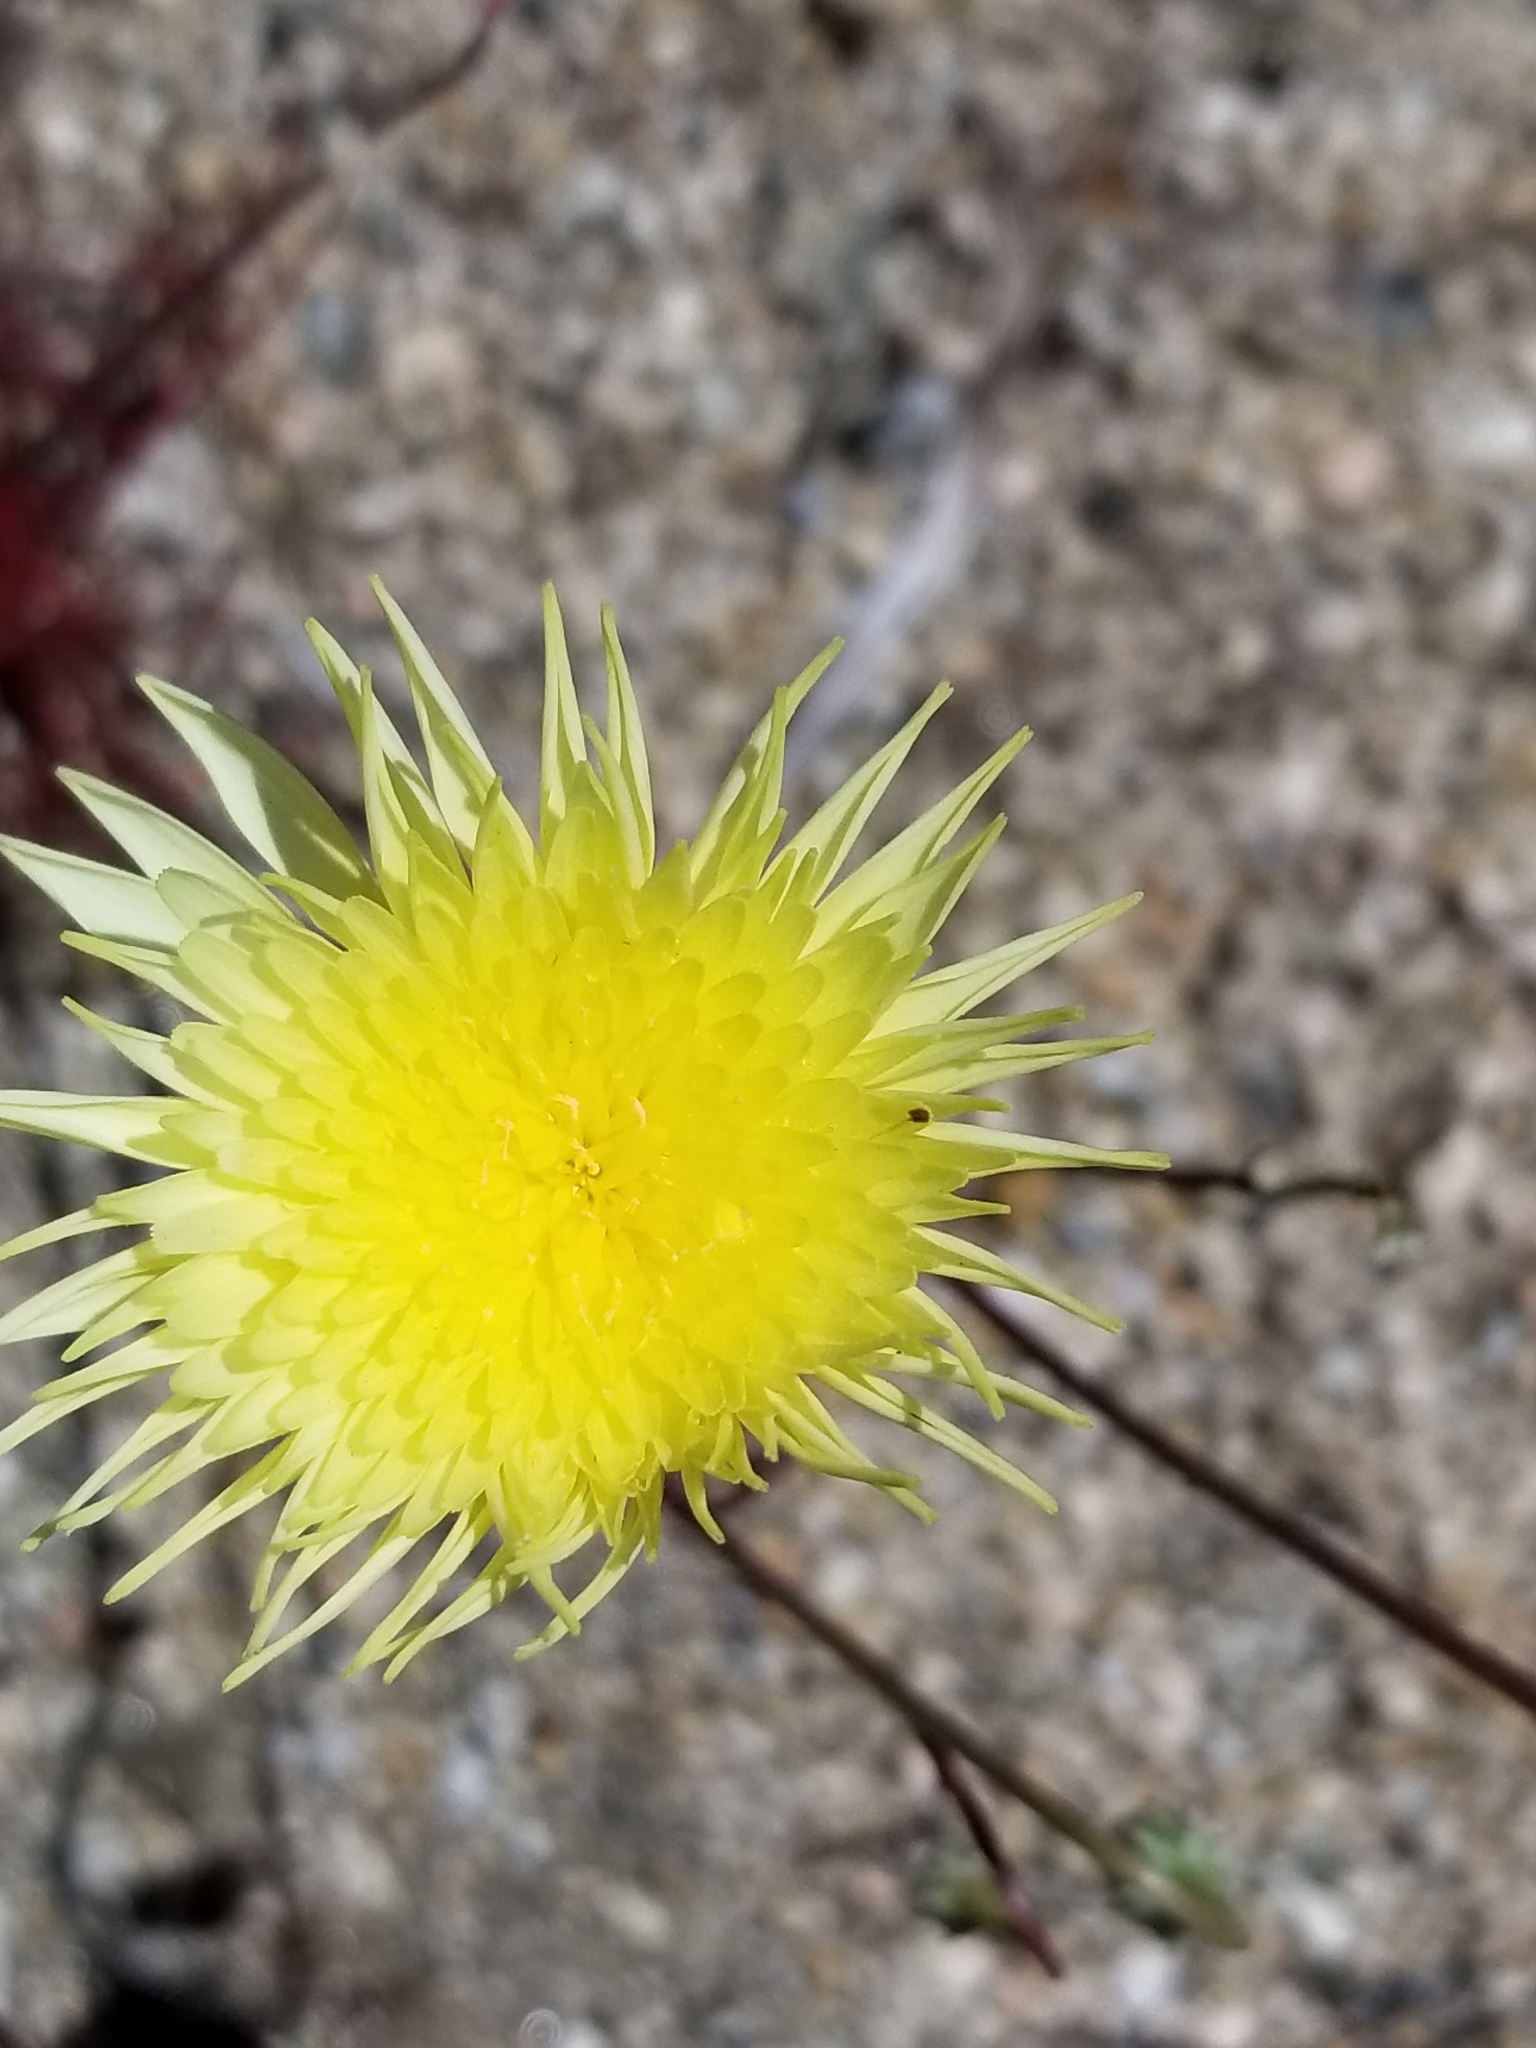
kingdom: Plantae
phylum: Tracheophyta
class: Magnoliopsida
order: Asterales
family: Asteraceae
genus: Malacothrix
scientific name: Malacothrix glabrata
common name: Smooth desert-dandelion
